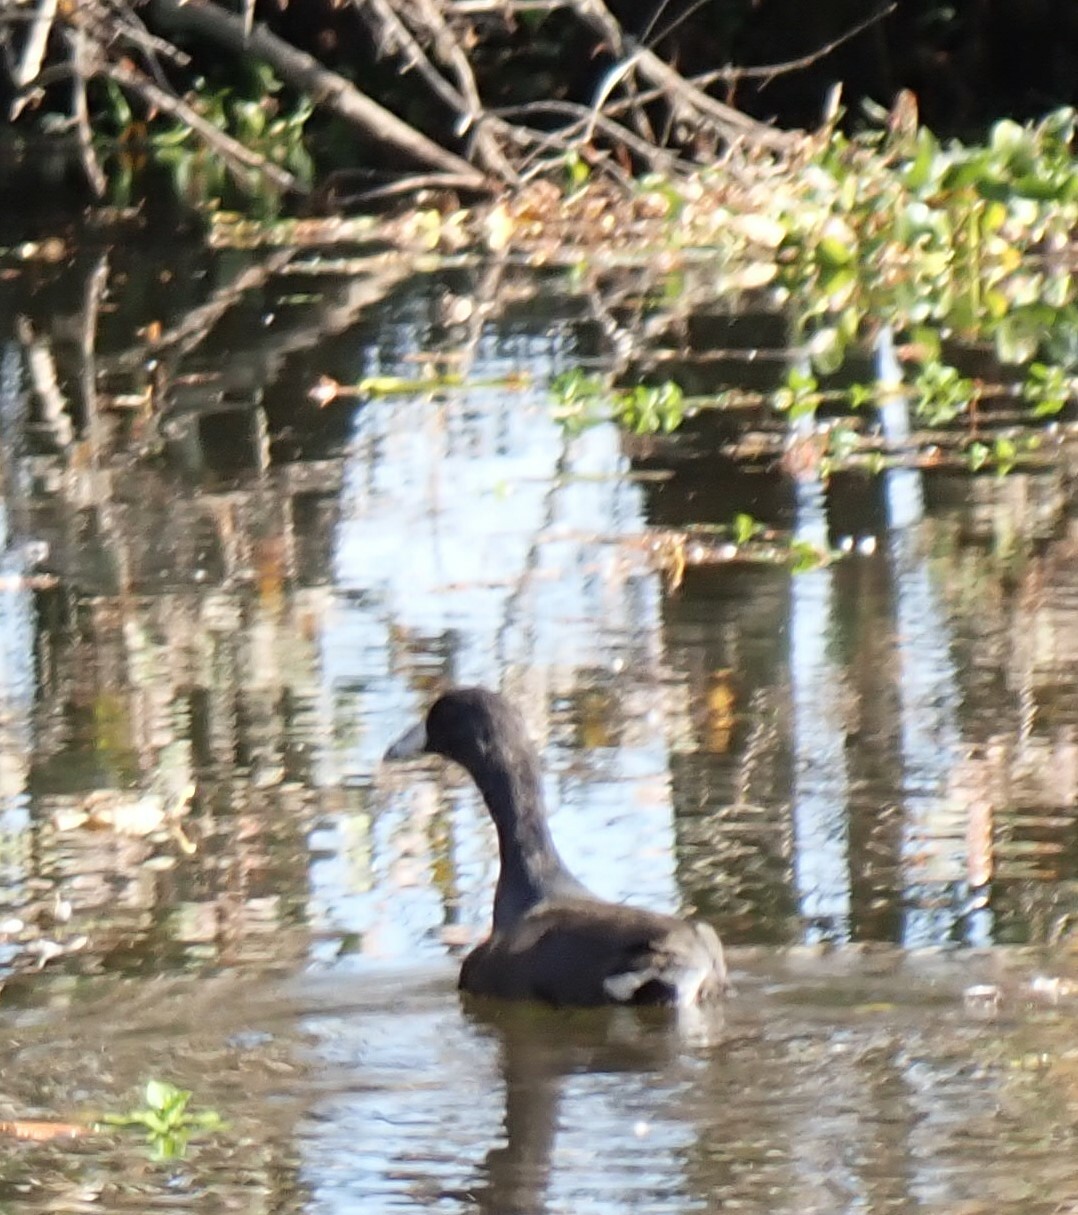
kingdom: Animalia
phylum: Chordata
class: Aves
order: Gruiformes
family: Rallidae
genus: Fulica
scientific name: Fulica americana
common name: American coot
